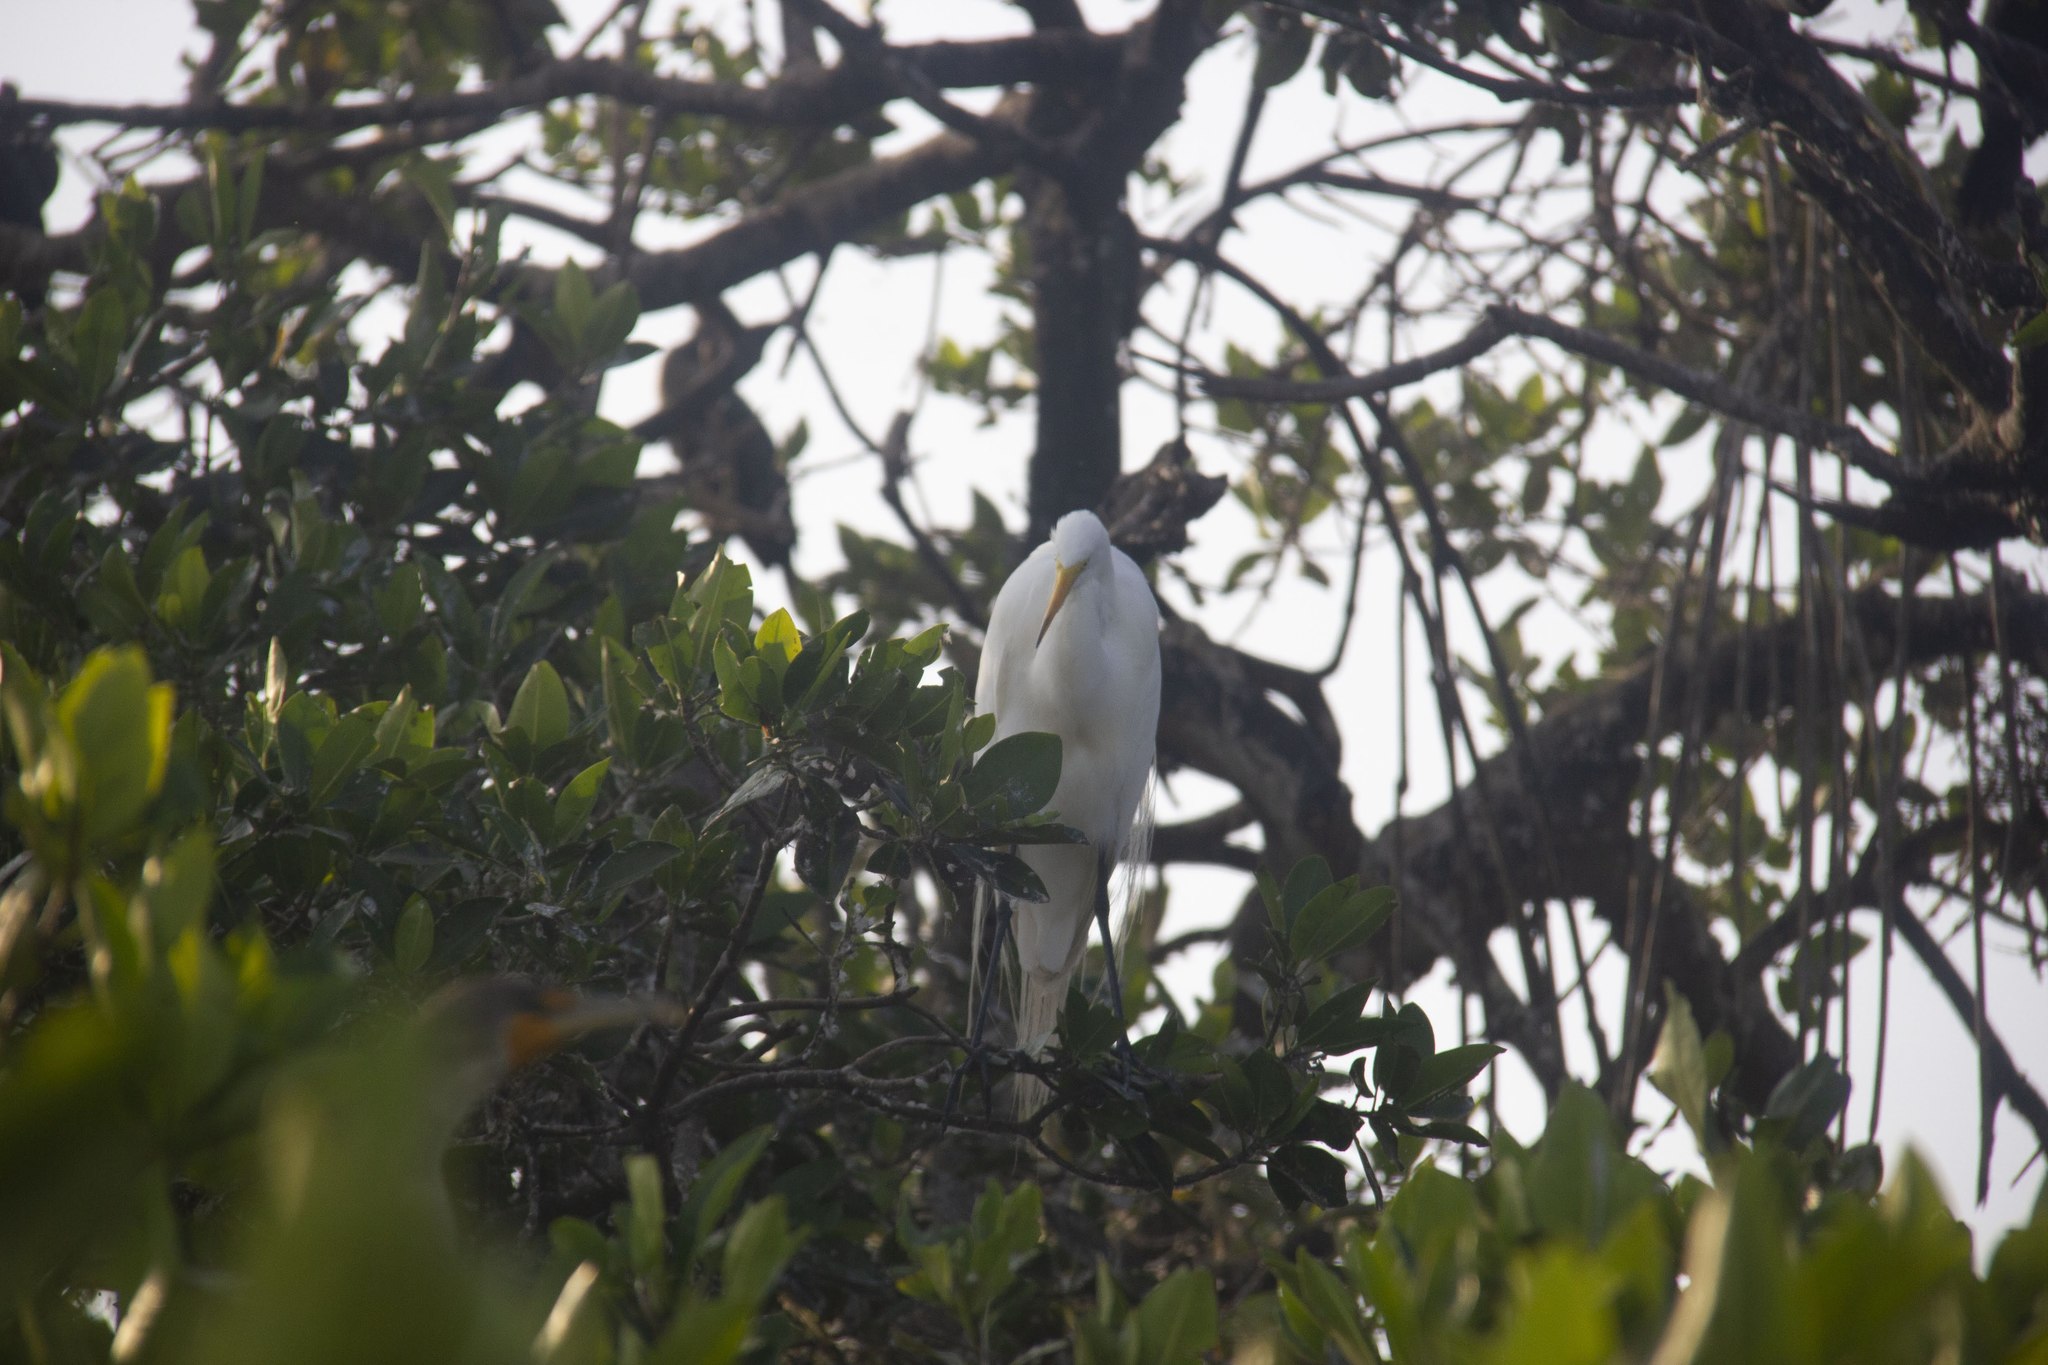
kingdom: Animalia
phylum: Chordata
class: Aves
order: Pelecaniformes
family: Ardeidae
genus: Ardea
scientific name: Ardea alba
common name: Great egret
